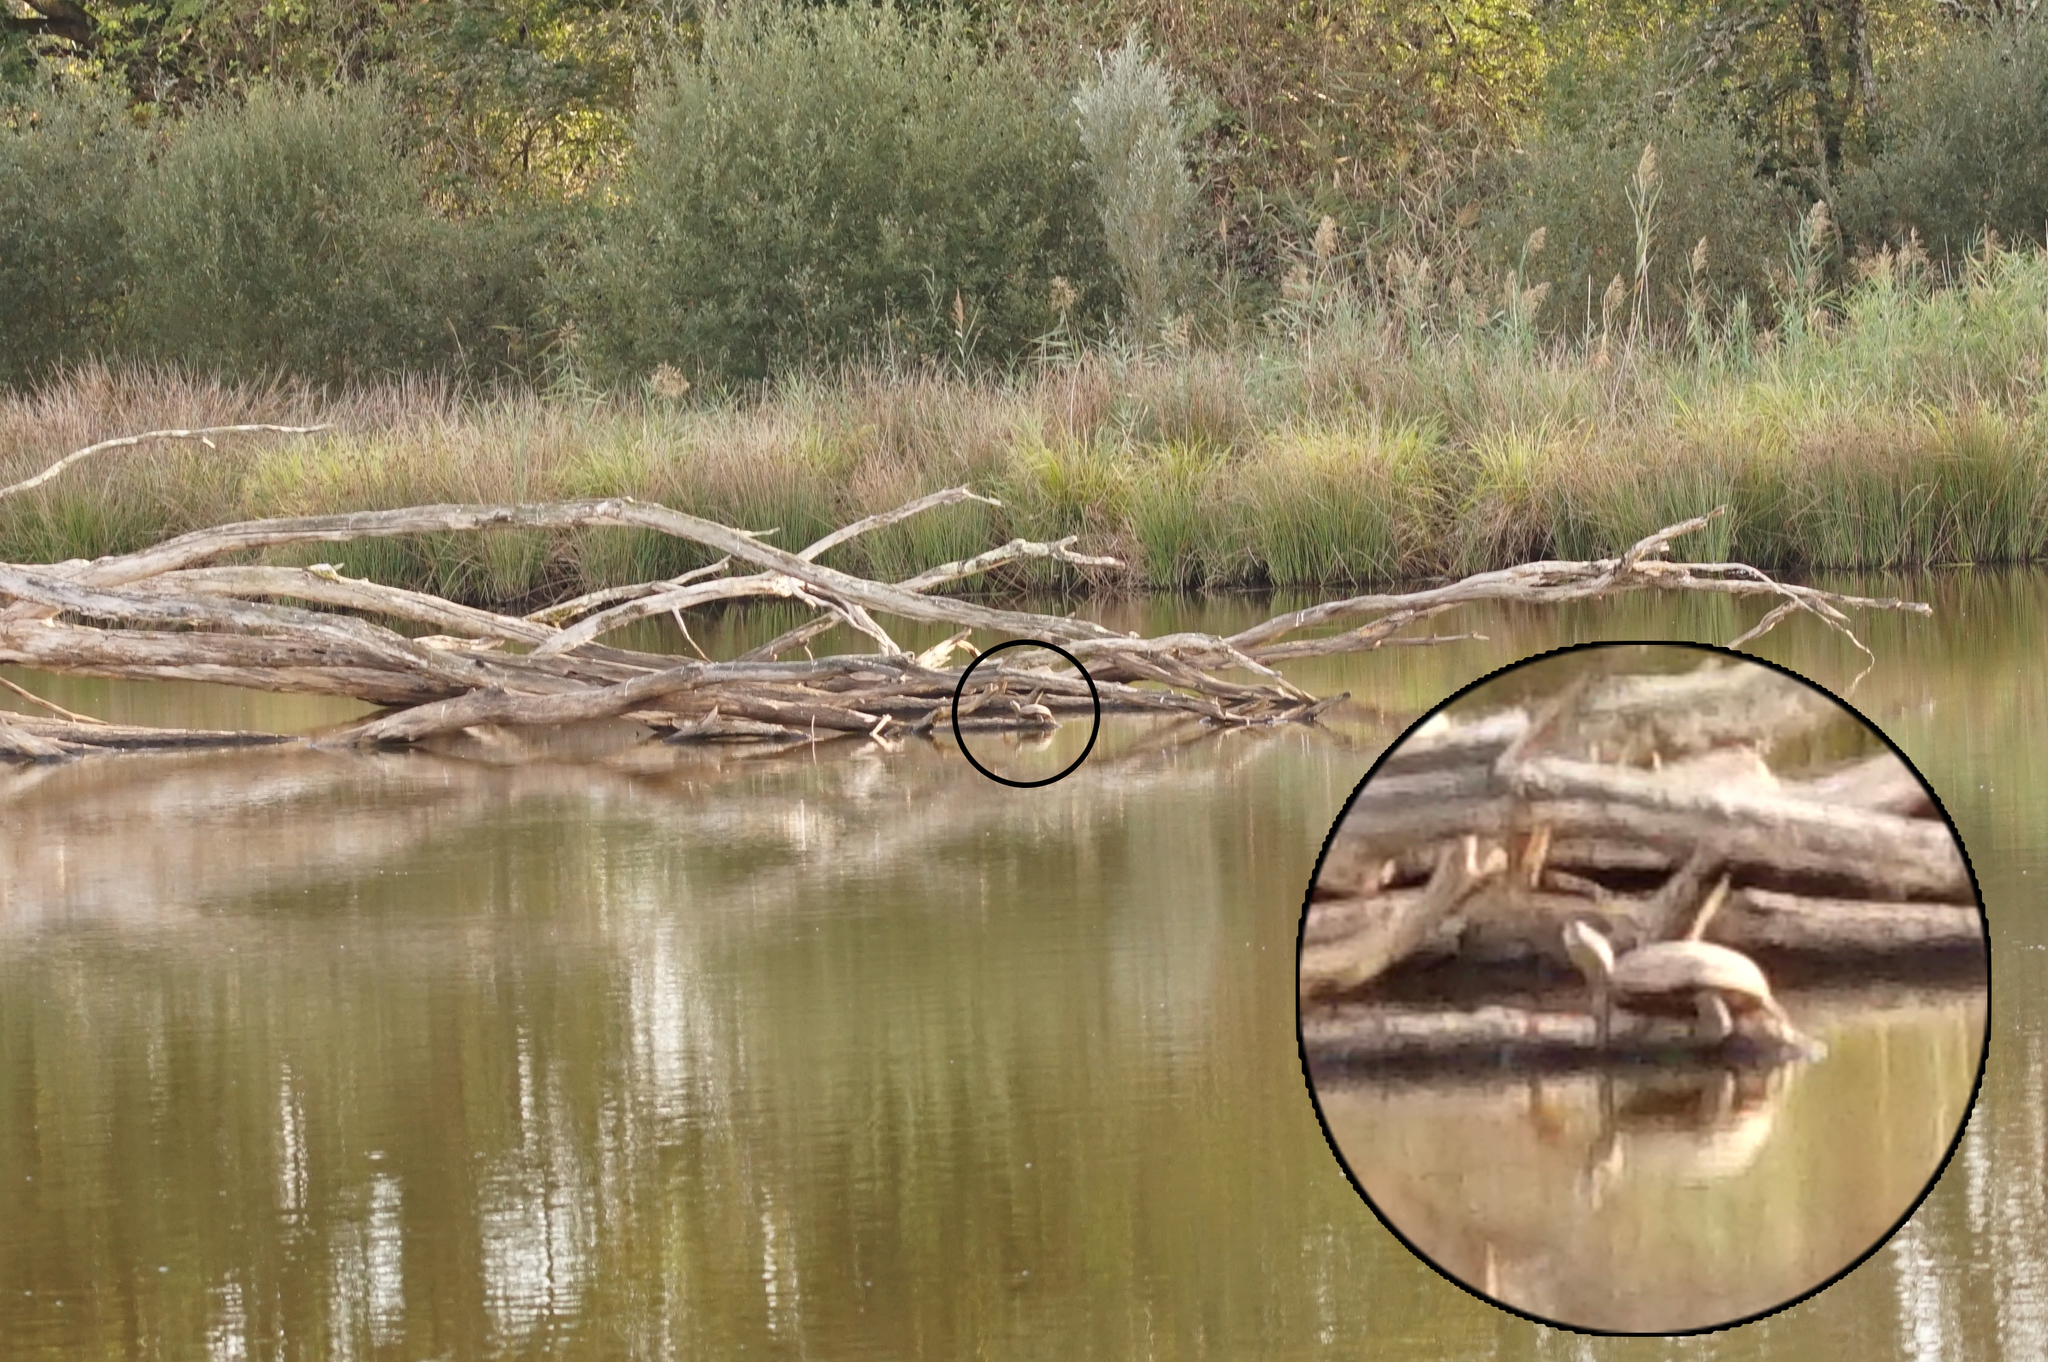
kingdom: Animalia
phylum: Chordata
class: Testudines
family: Emydidae
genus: Emys
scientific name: Emys orbicularis
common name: European pond turtle
